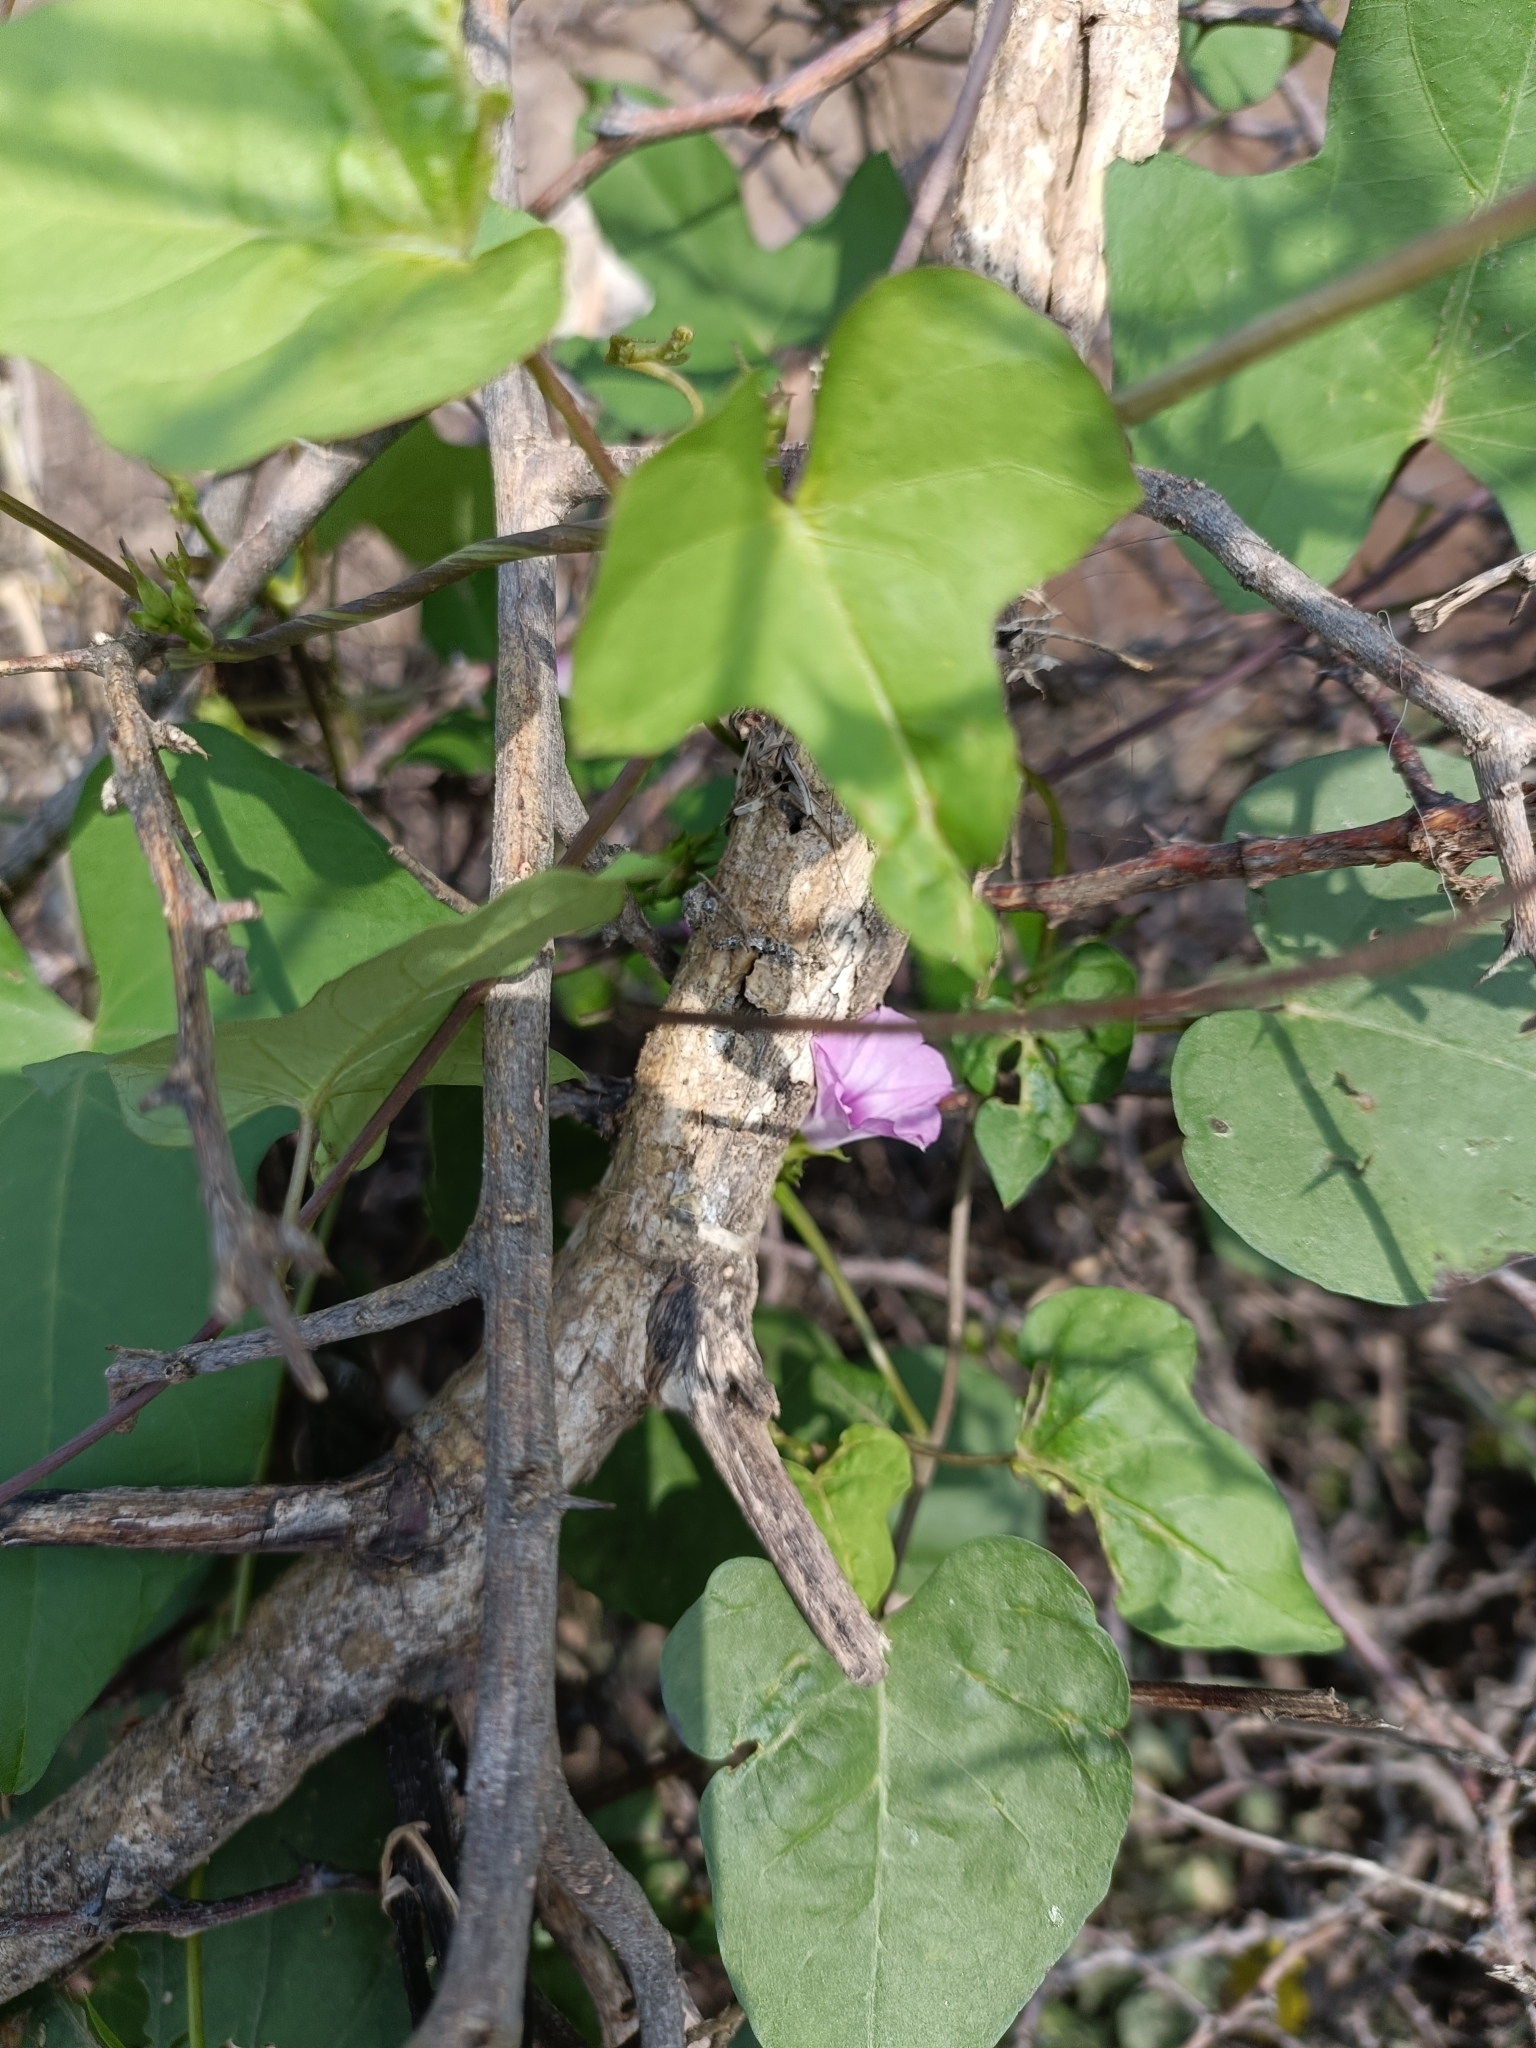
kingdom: Plantae
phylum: Tracheophyta
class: Magnoliopsida
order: Solanales
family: Convolvulaceae
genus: Ipomoea
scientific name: Ipomoea triloba
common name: Little-bell
